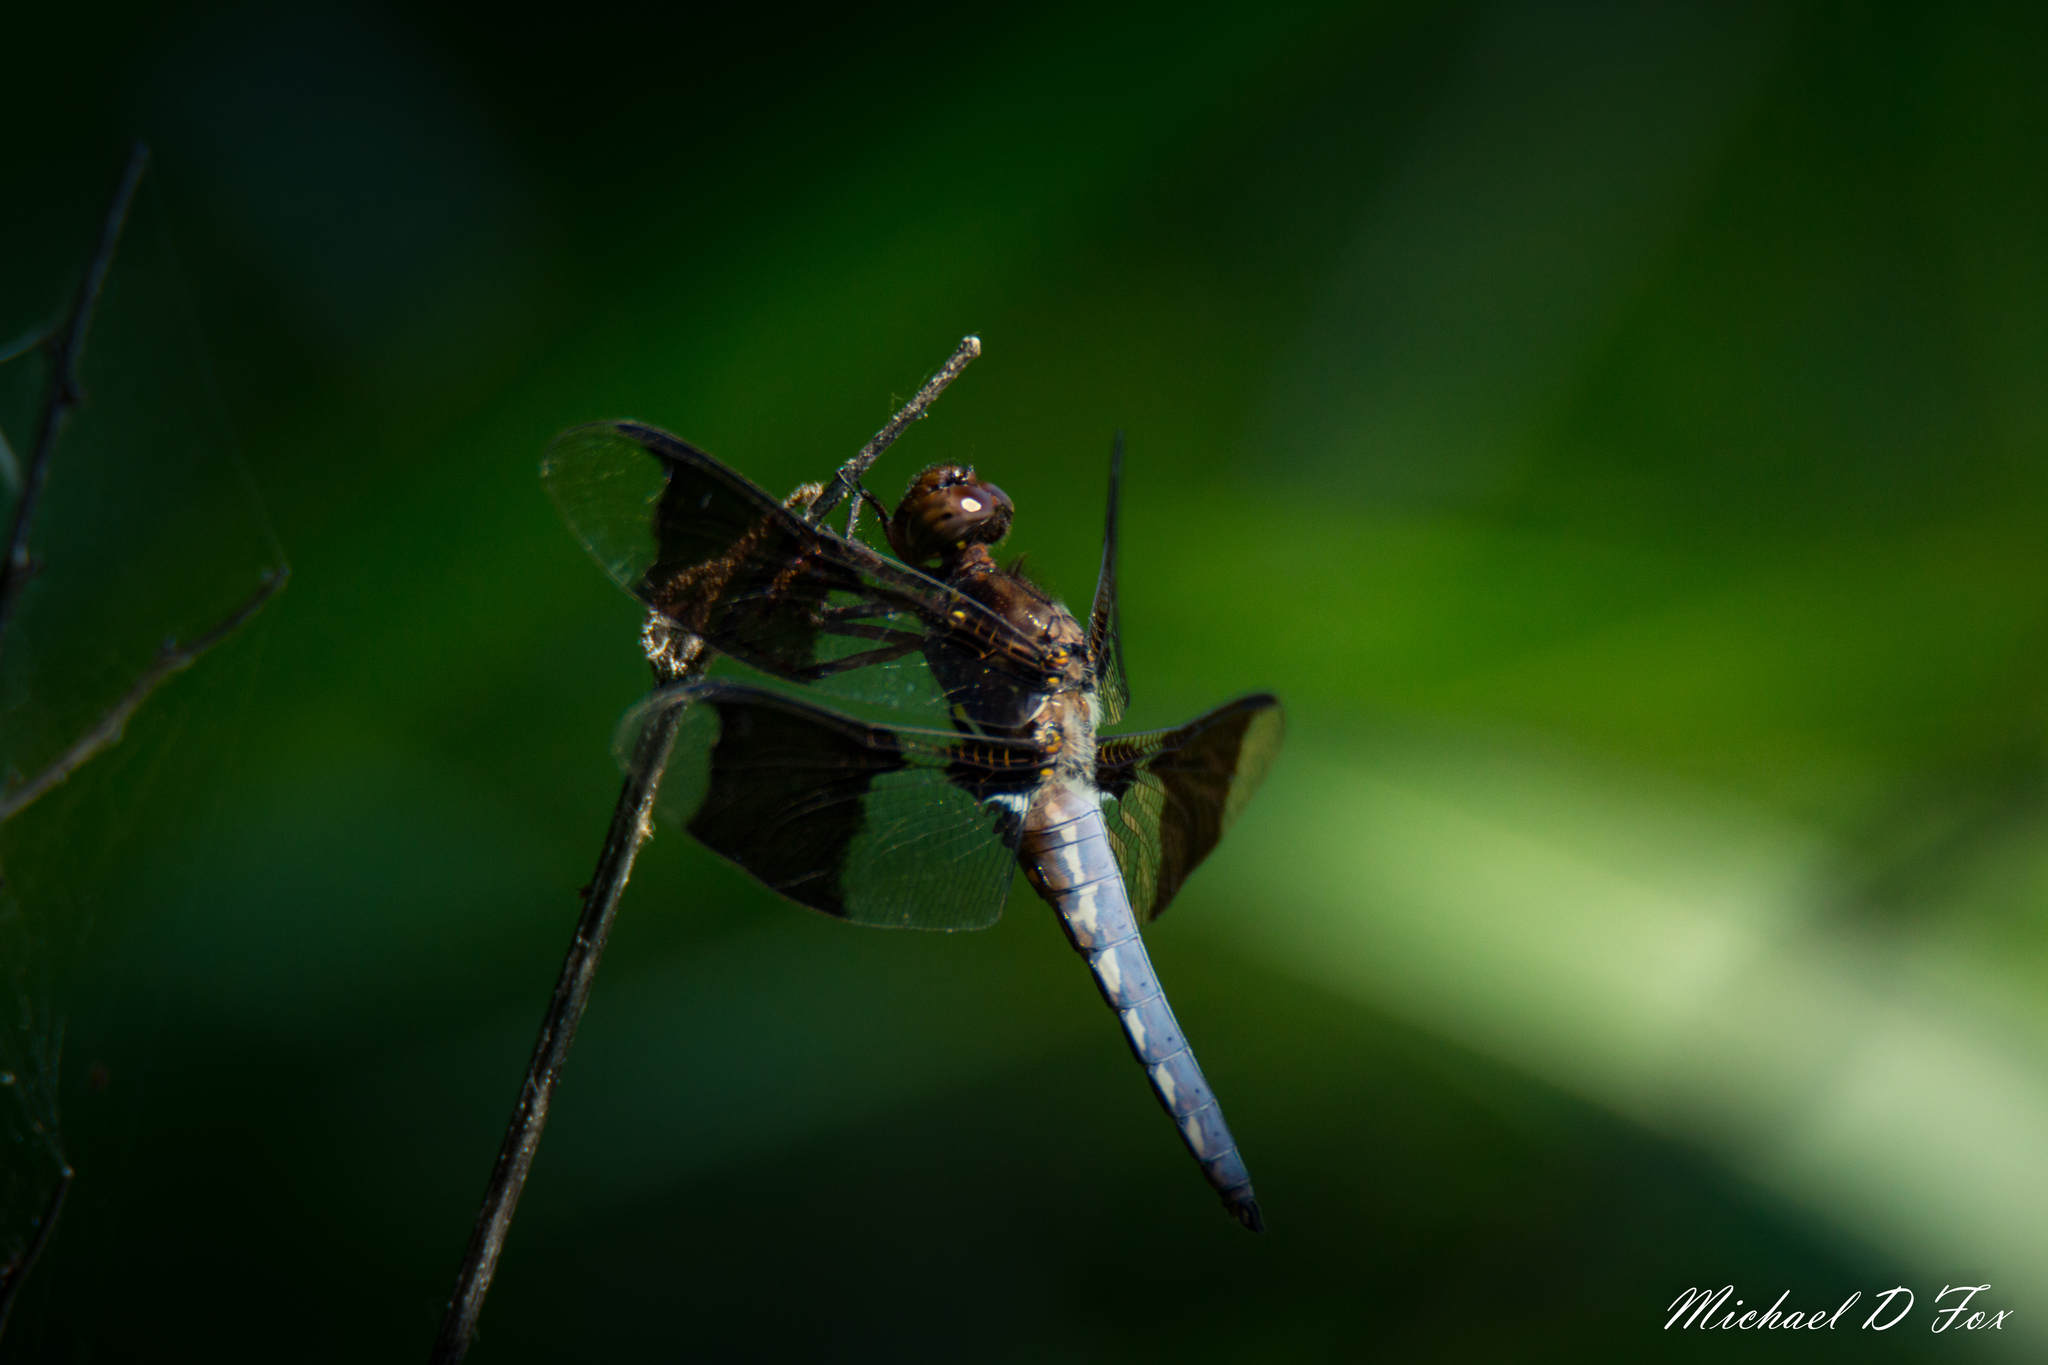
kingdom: Animalia
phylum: Arthropoda
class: Insecta
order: Odonata
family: Libellulidae
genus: Plathemis
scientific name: Plathemis lydia
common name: Common whitetail
